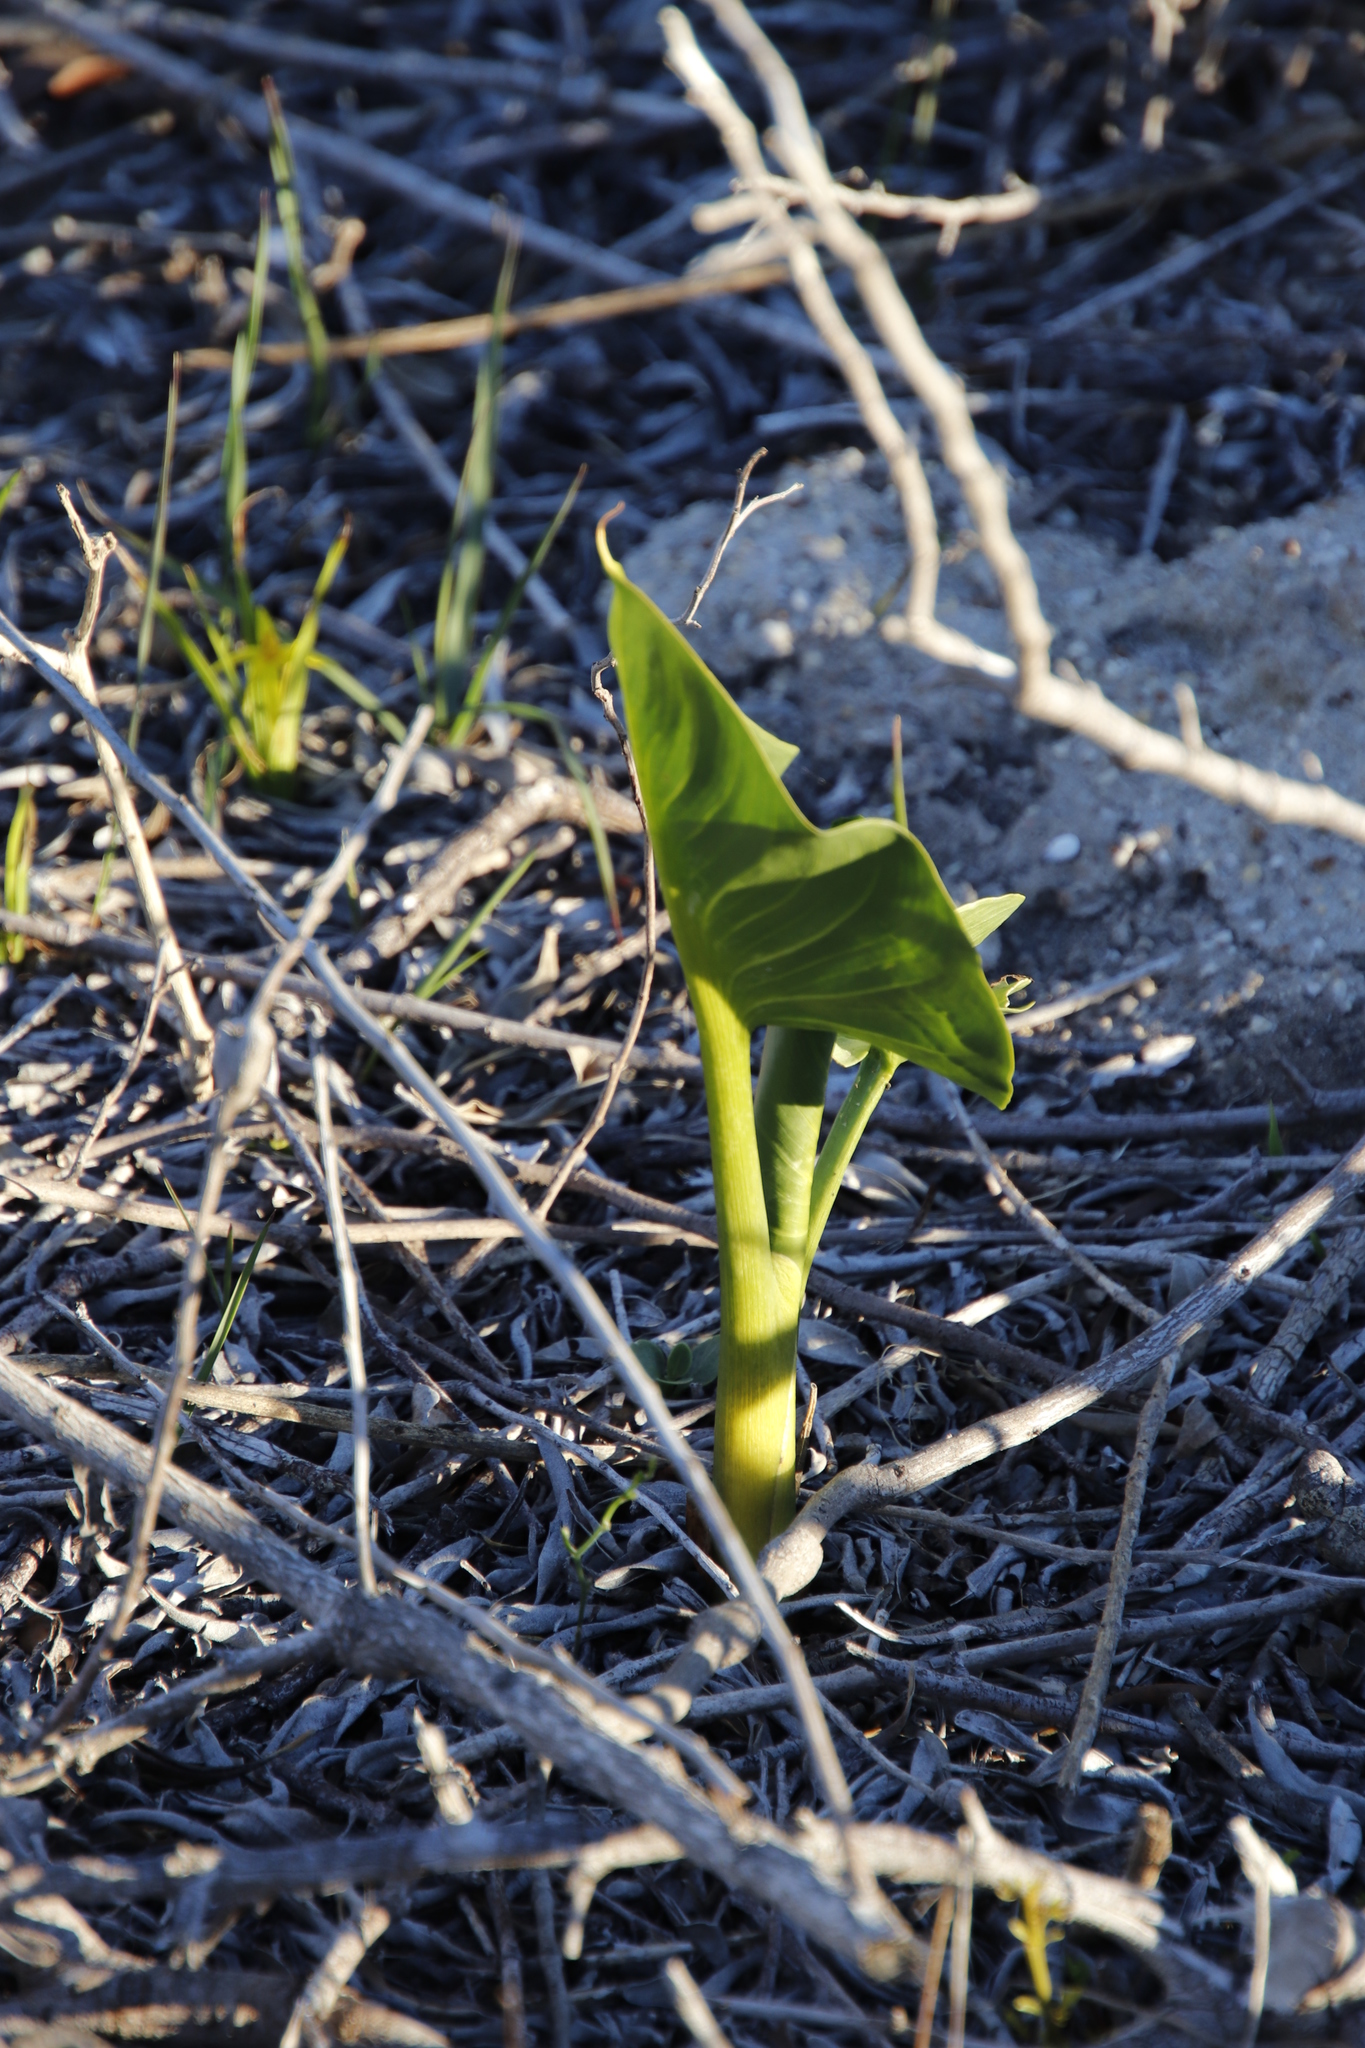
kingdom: Plantae
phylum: Tracheophyta
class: Liliopsida
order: Alismatales
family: Araceae
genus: Zantedeschia
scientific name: Zantedeschia aethiopica
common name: Altar-lily
